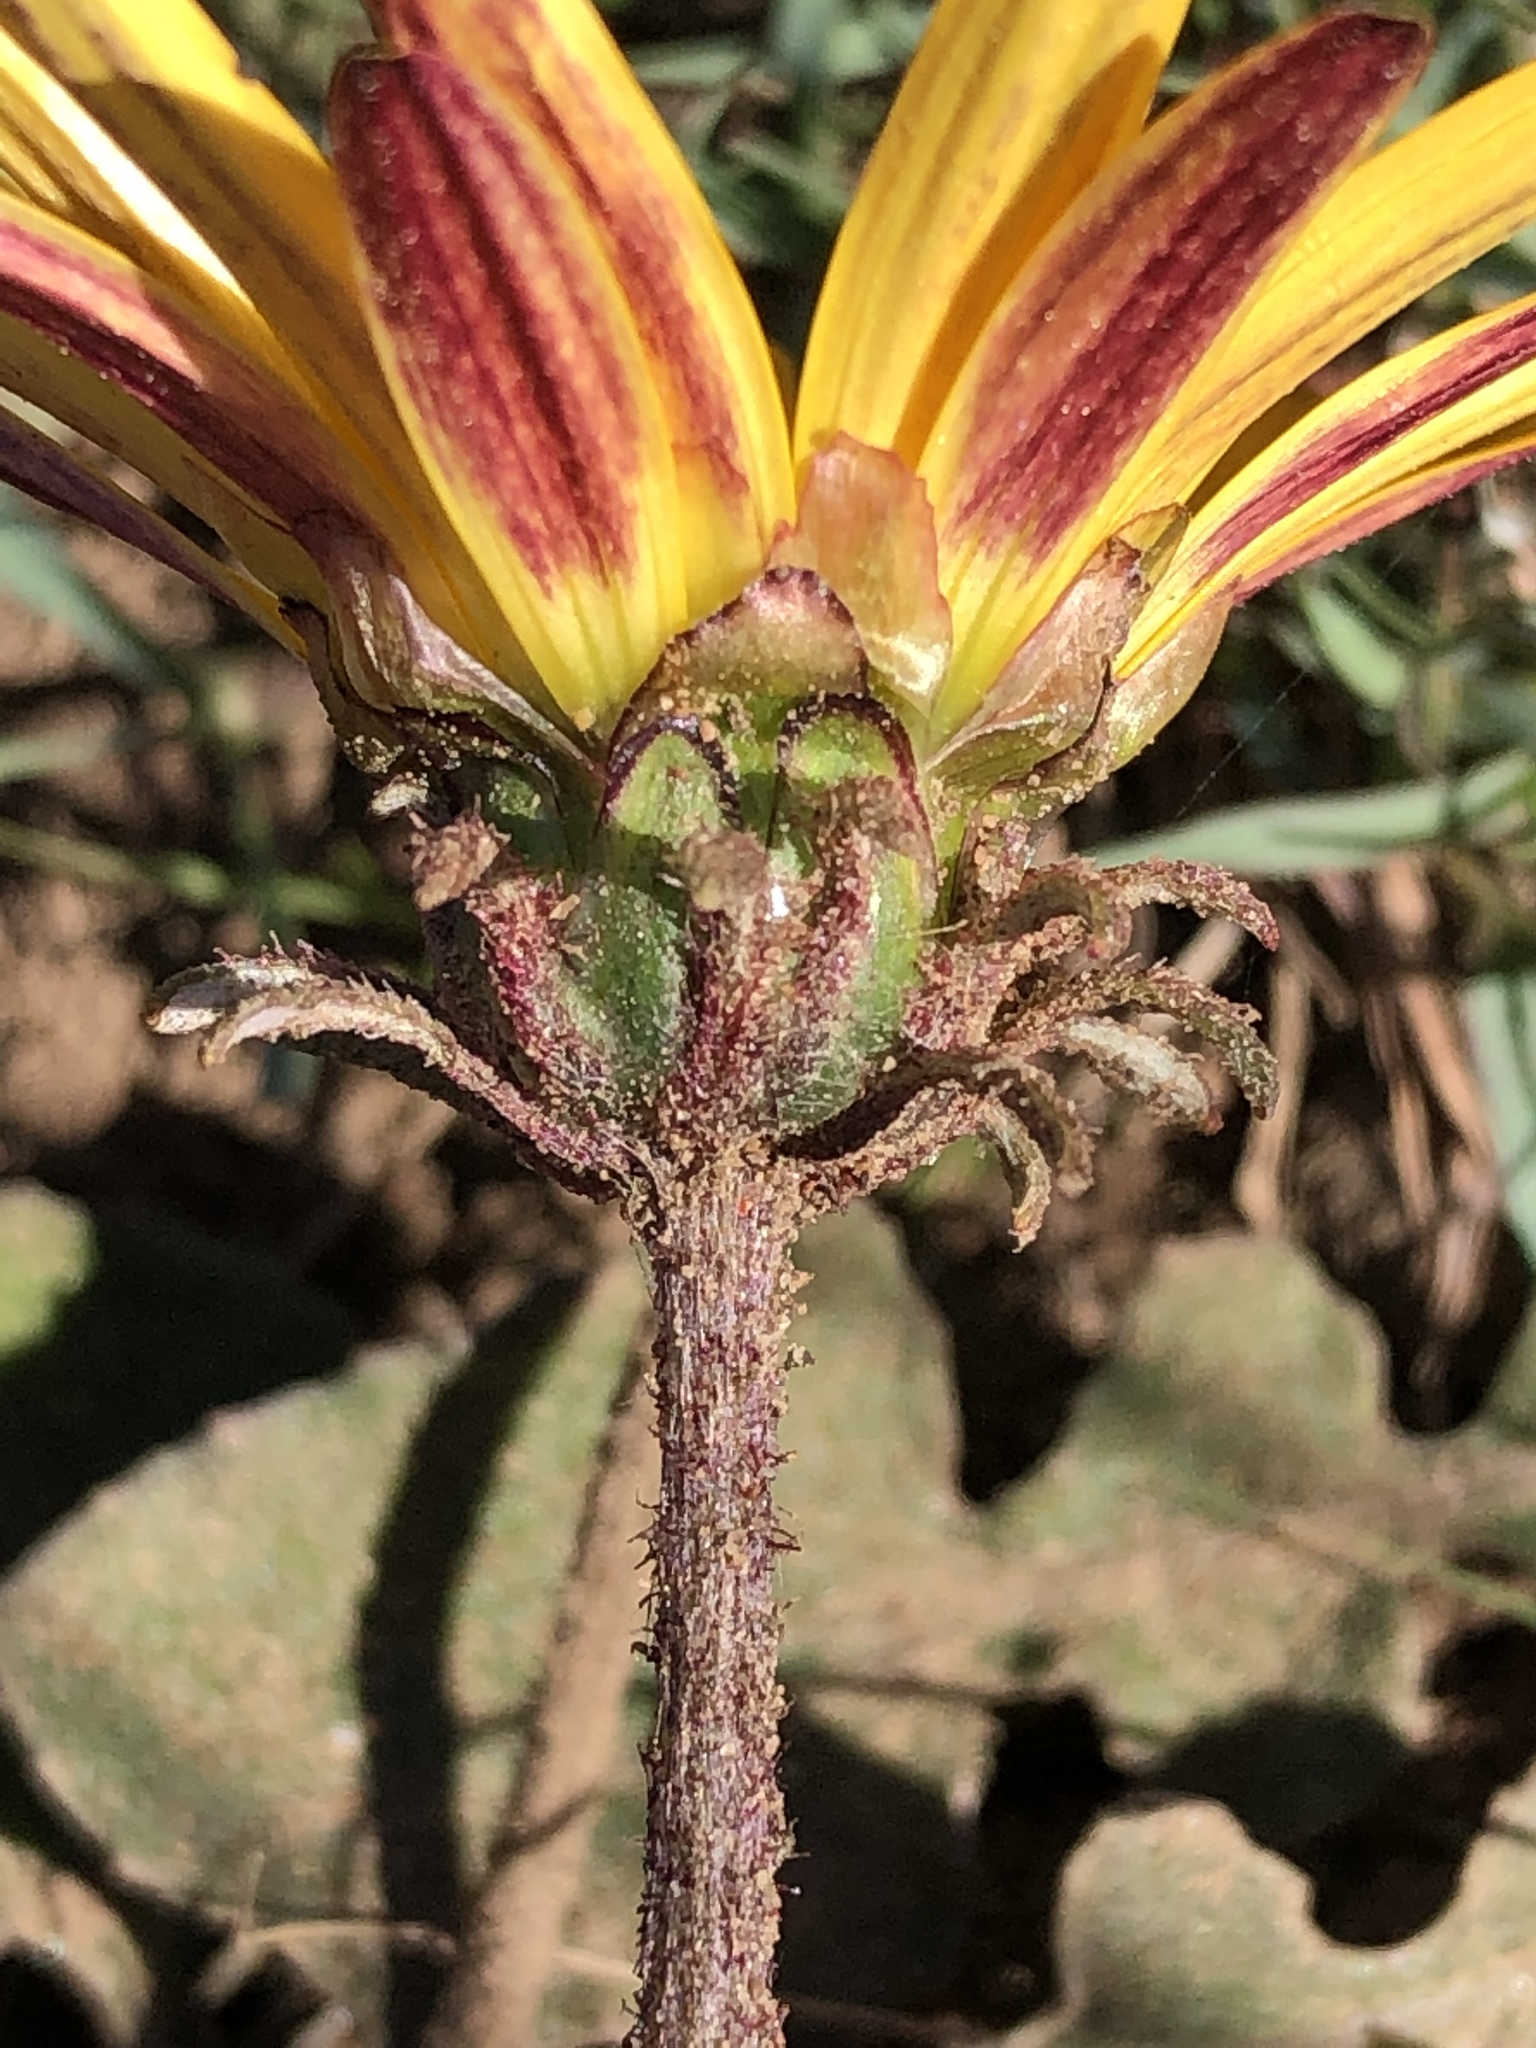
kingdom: Plantae
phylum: Tracheophyta
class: Magnoliopsida
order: Asterales
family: Asteraceae
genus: Arctotis
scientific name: Arctotis acaulis
